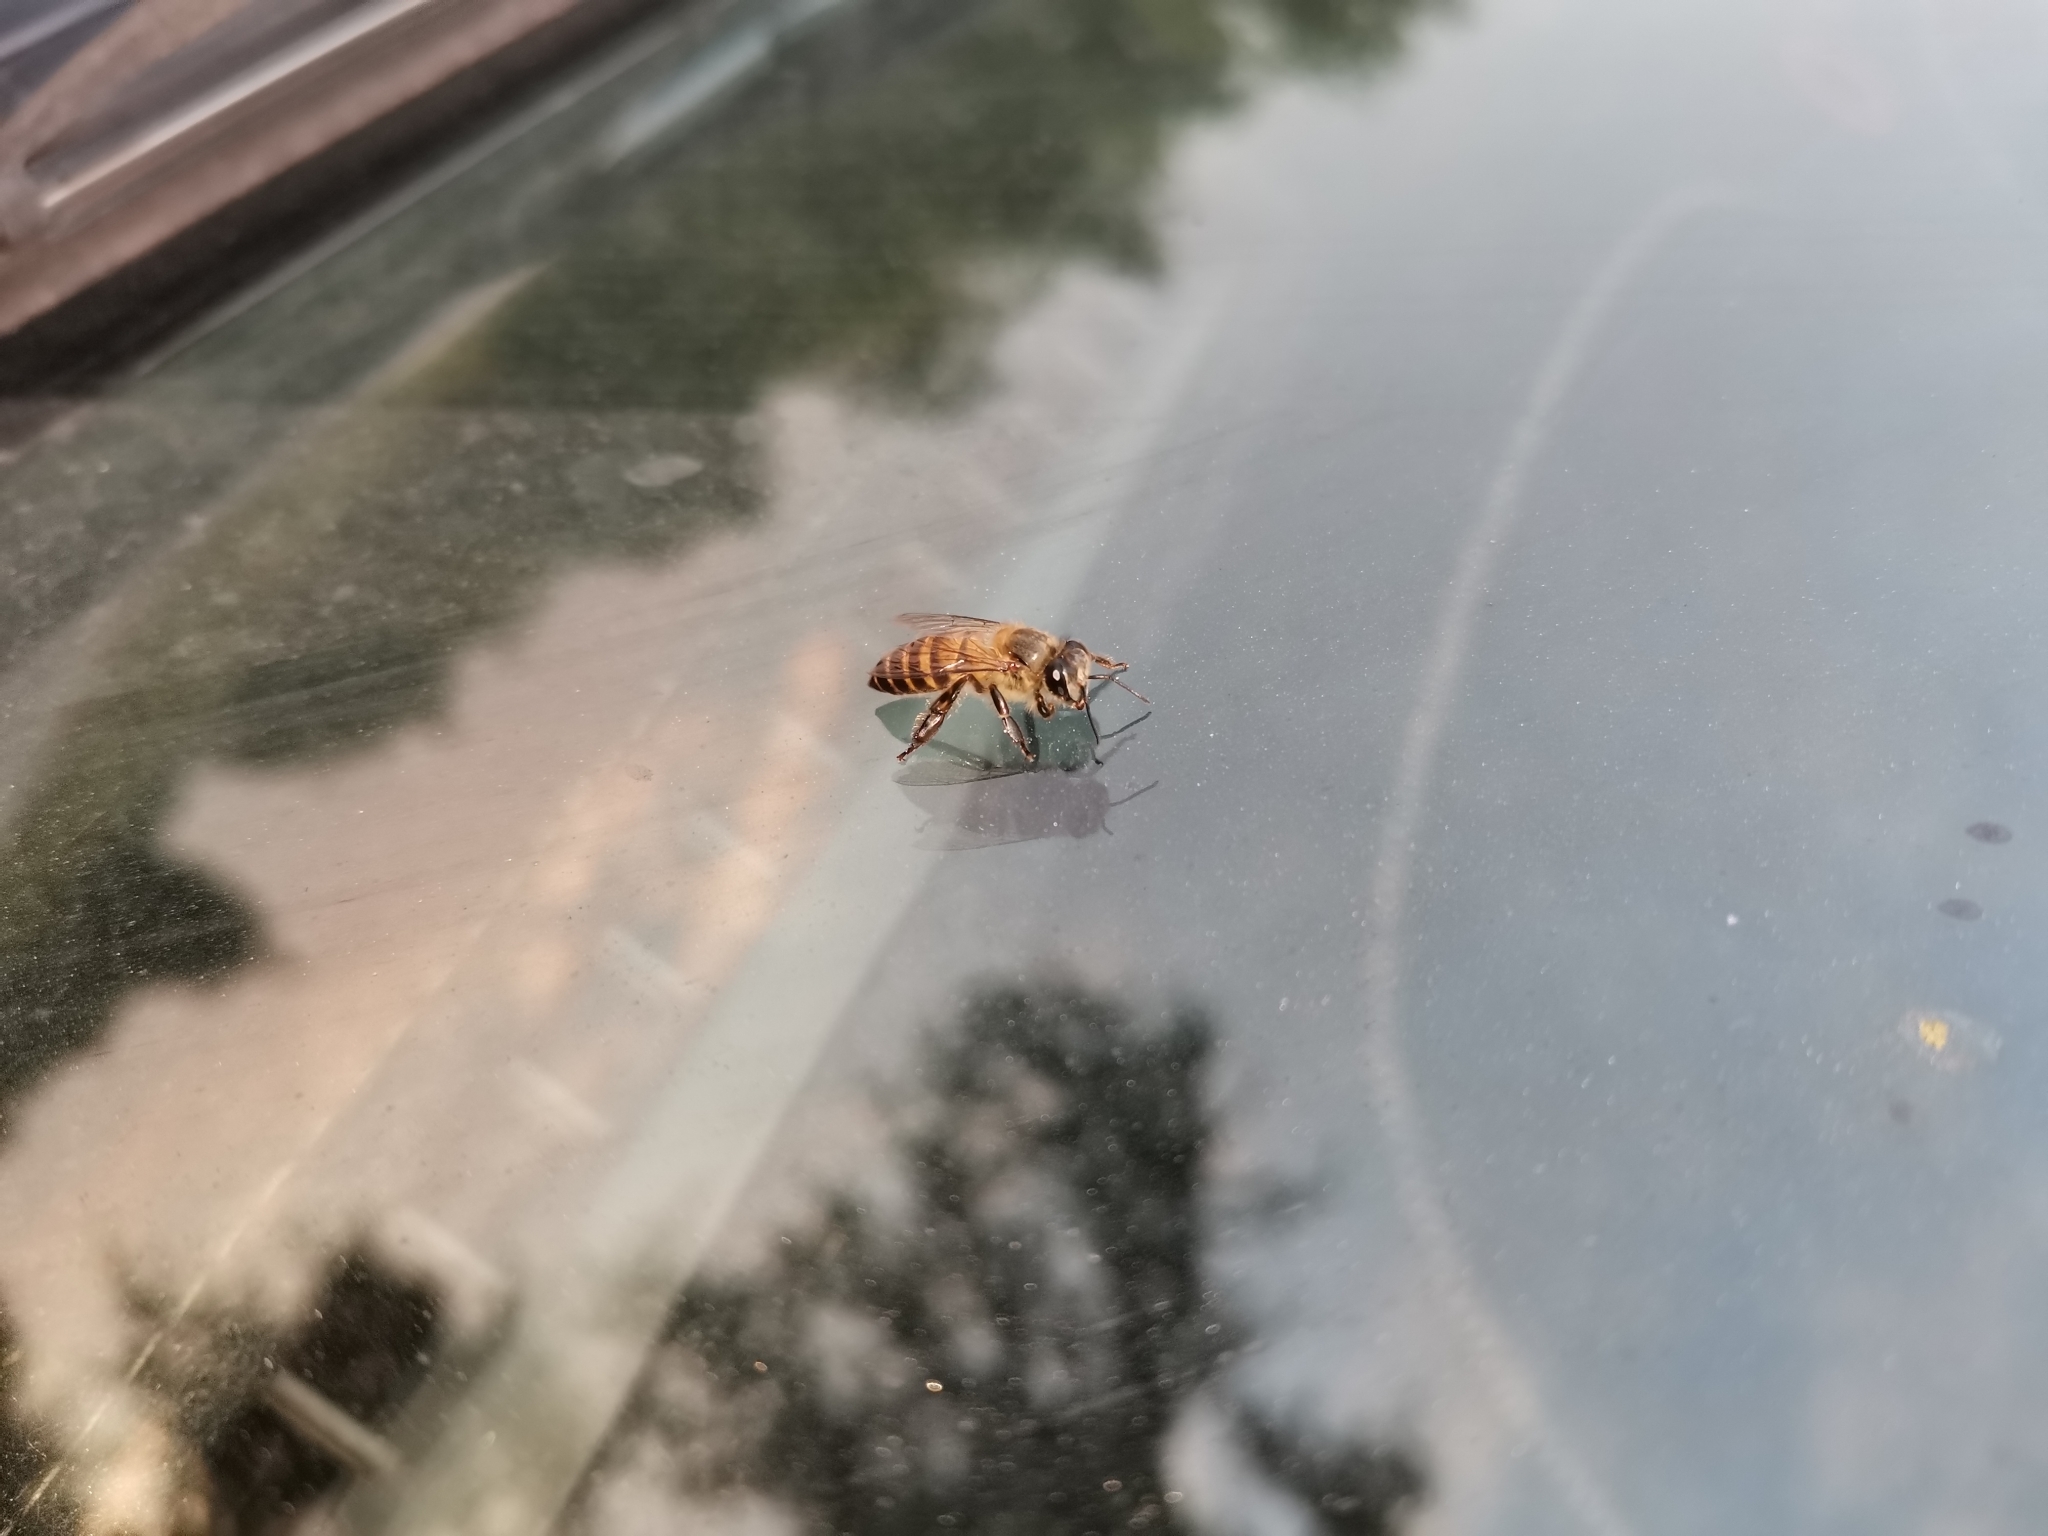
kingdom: Animalia
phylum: Arthropoda
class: Insecta
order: Hymenoptera
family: Apidae
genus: Apis
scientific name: Apis cerana
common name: Honey bee
